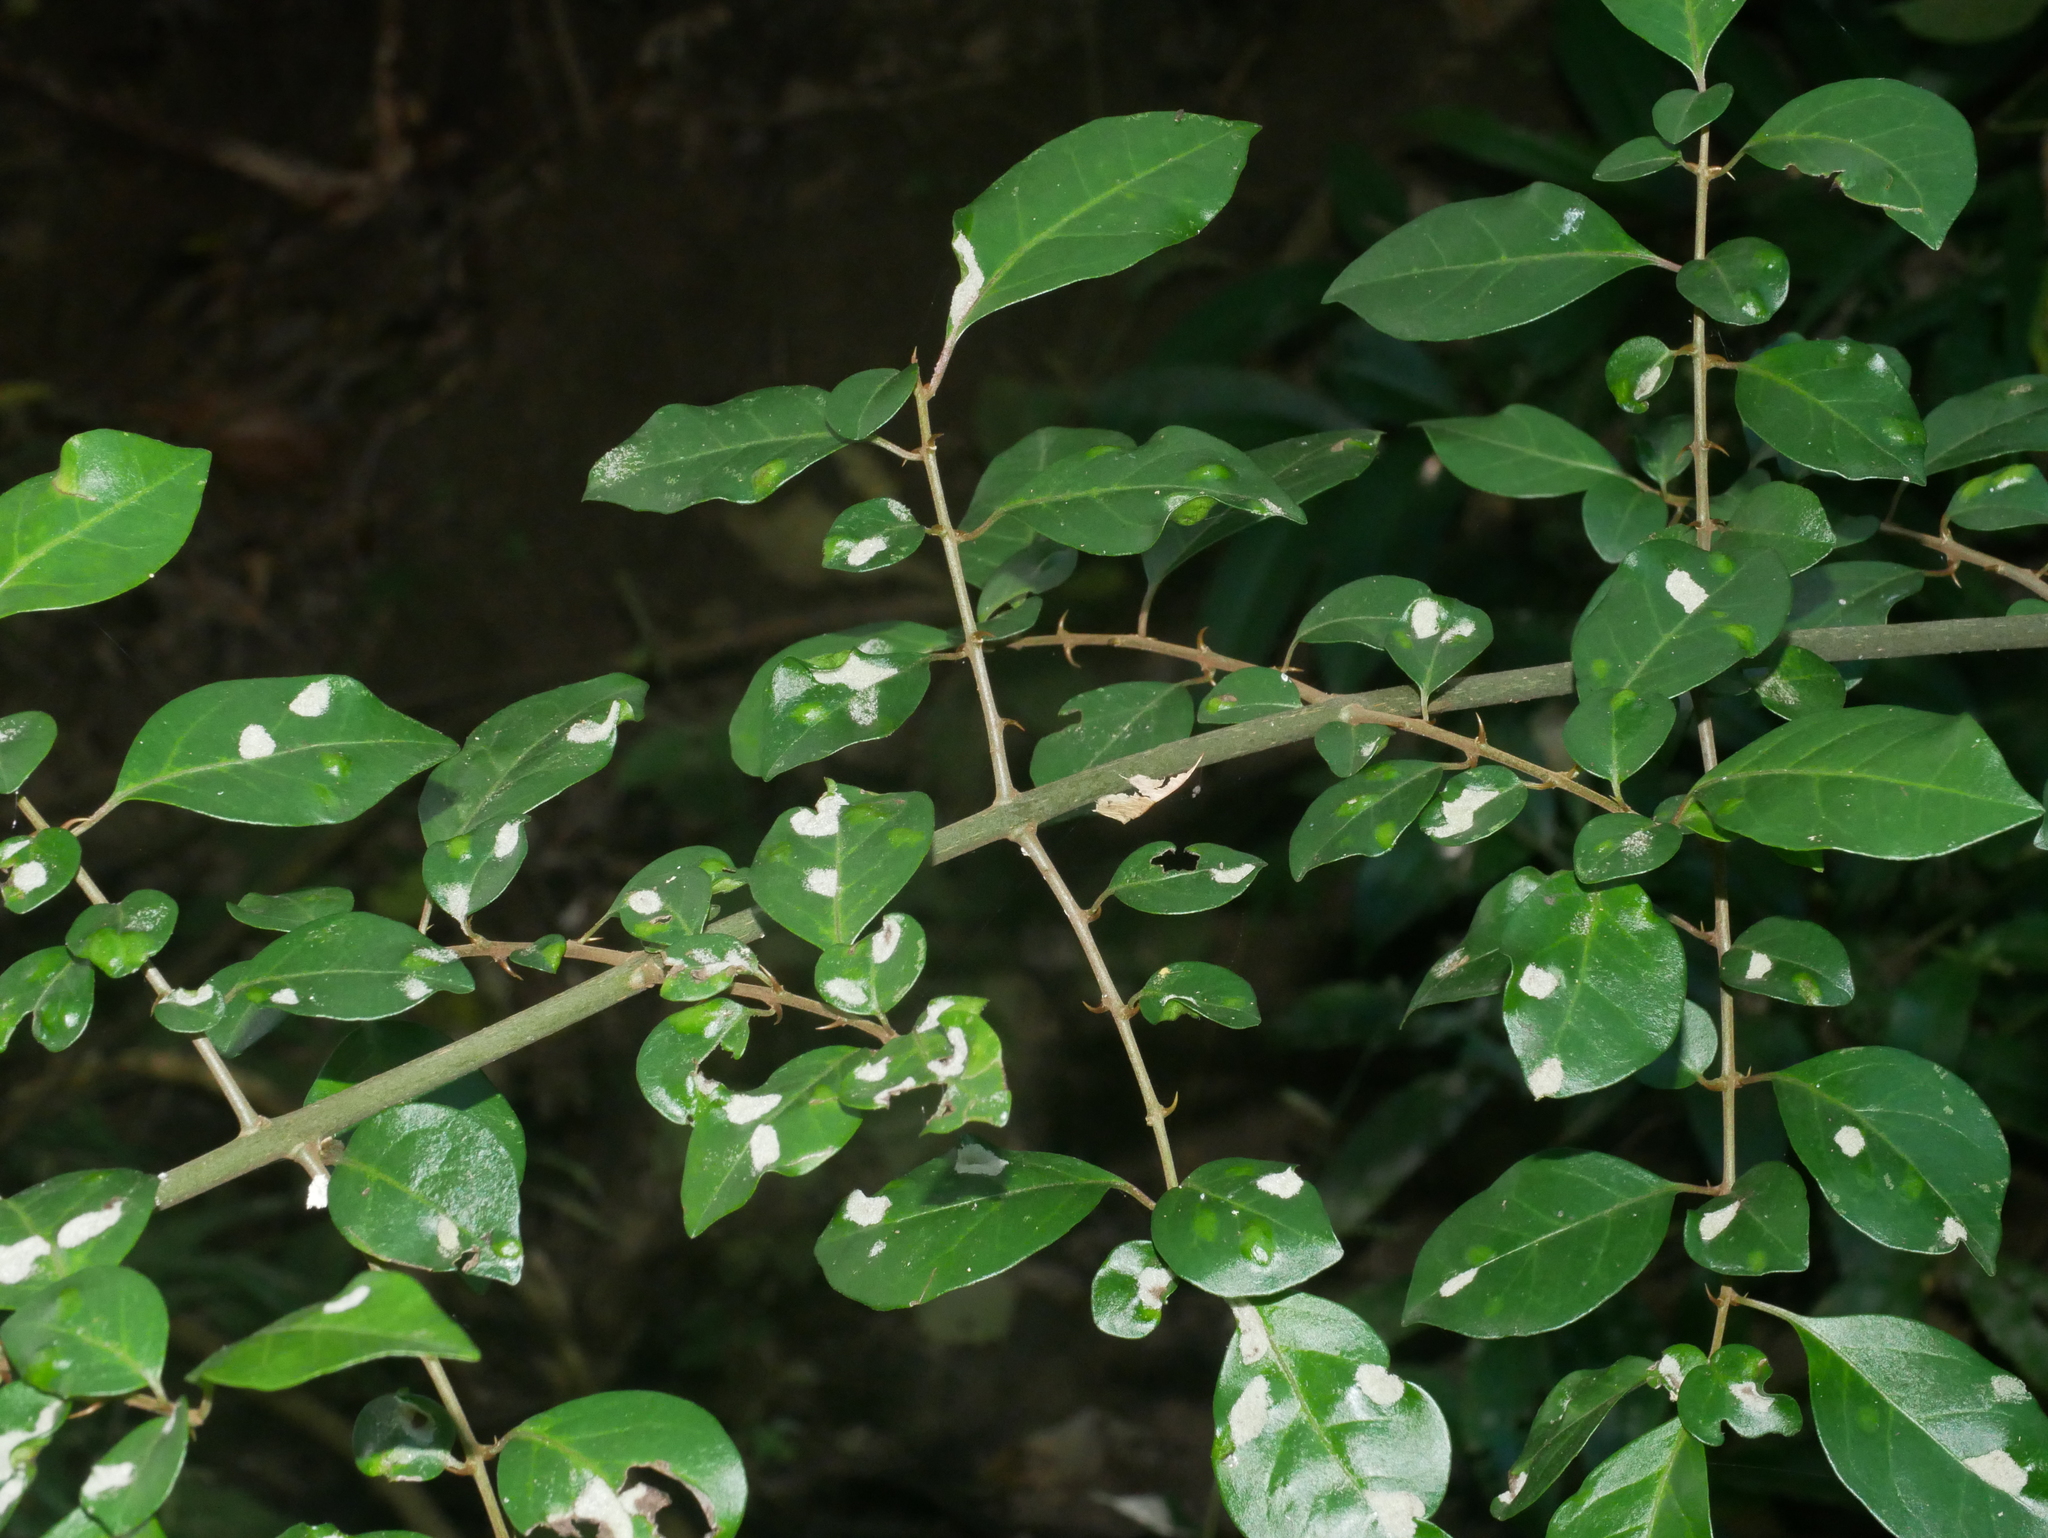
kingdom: Plantae
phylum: Tracheophyta
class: Magnoliopsida
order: Caryophyllales
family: Nyctaginaceae
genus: Pisonia
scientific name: Pisonia aculeata
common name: Cockspur vine
